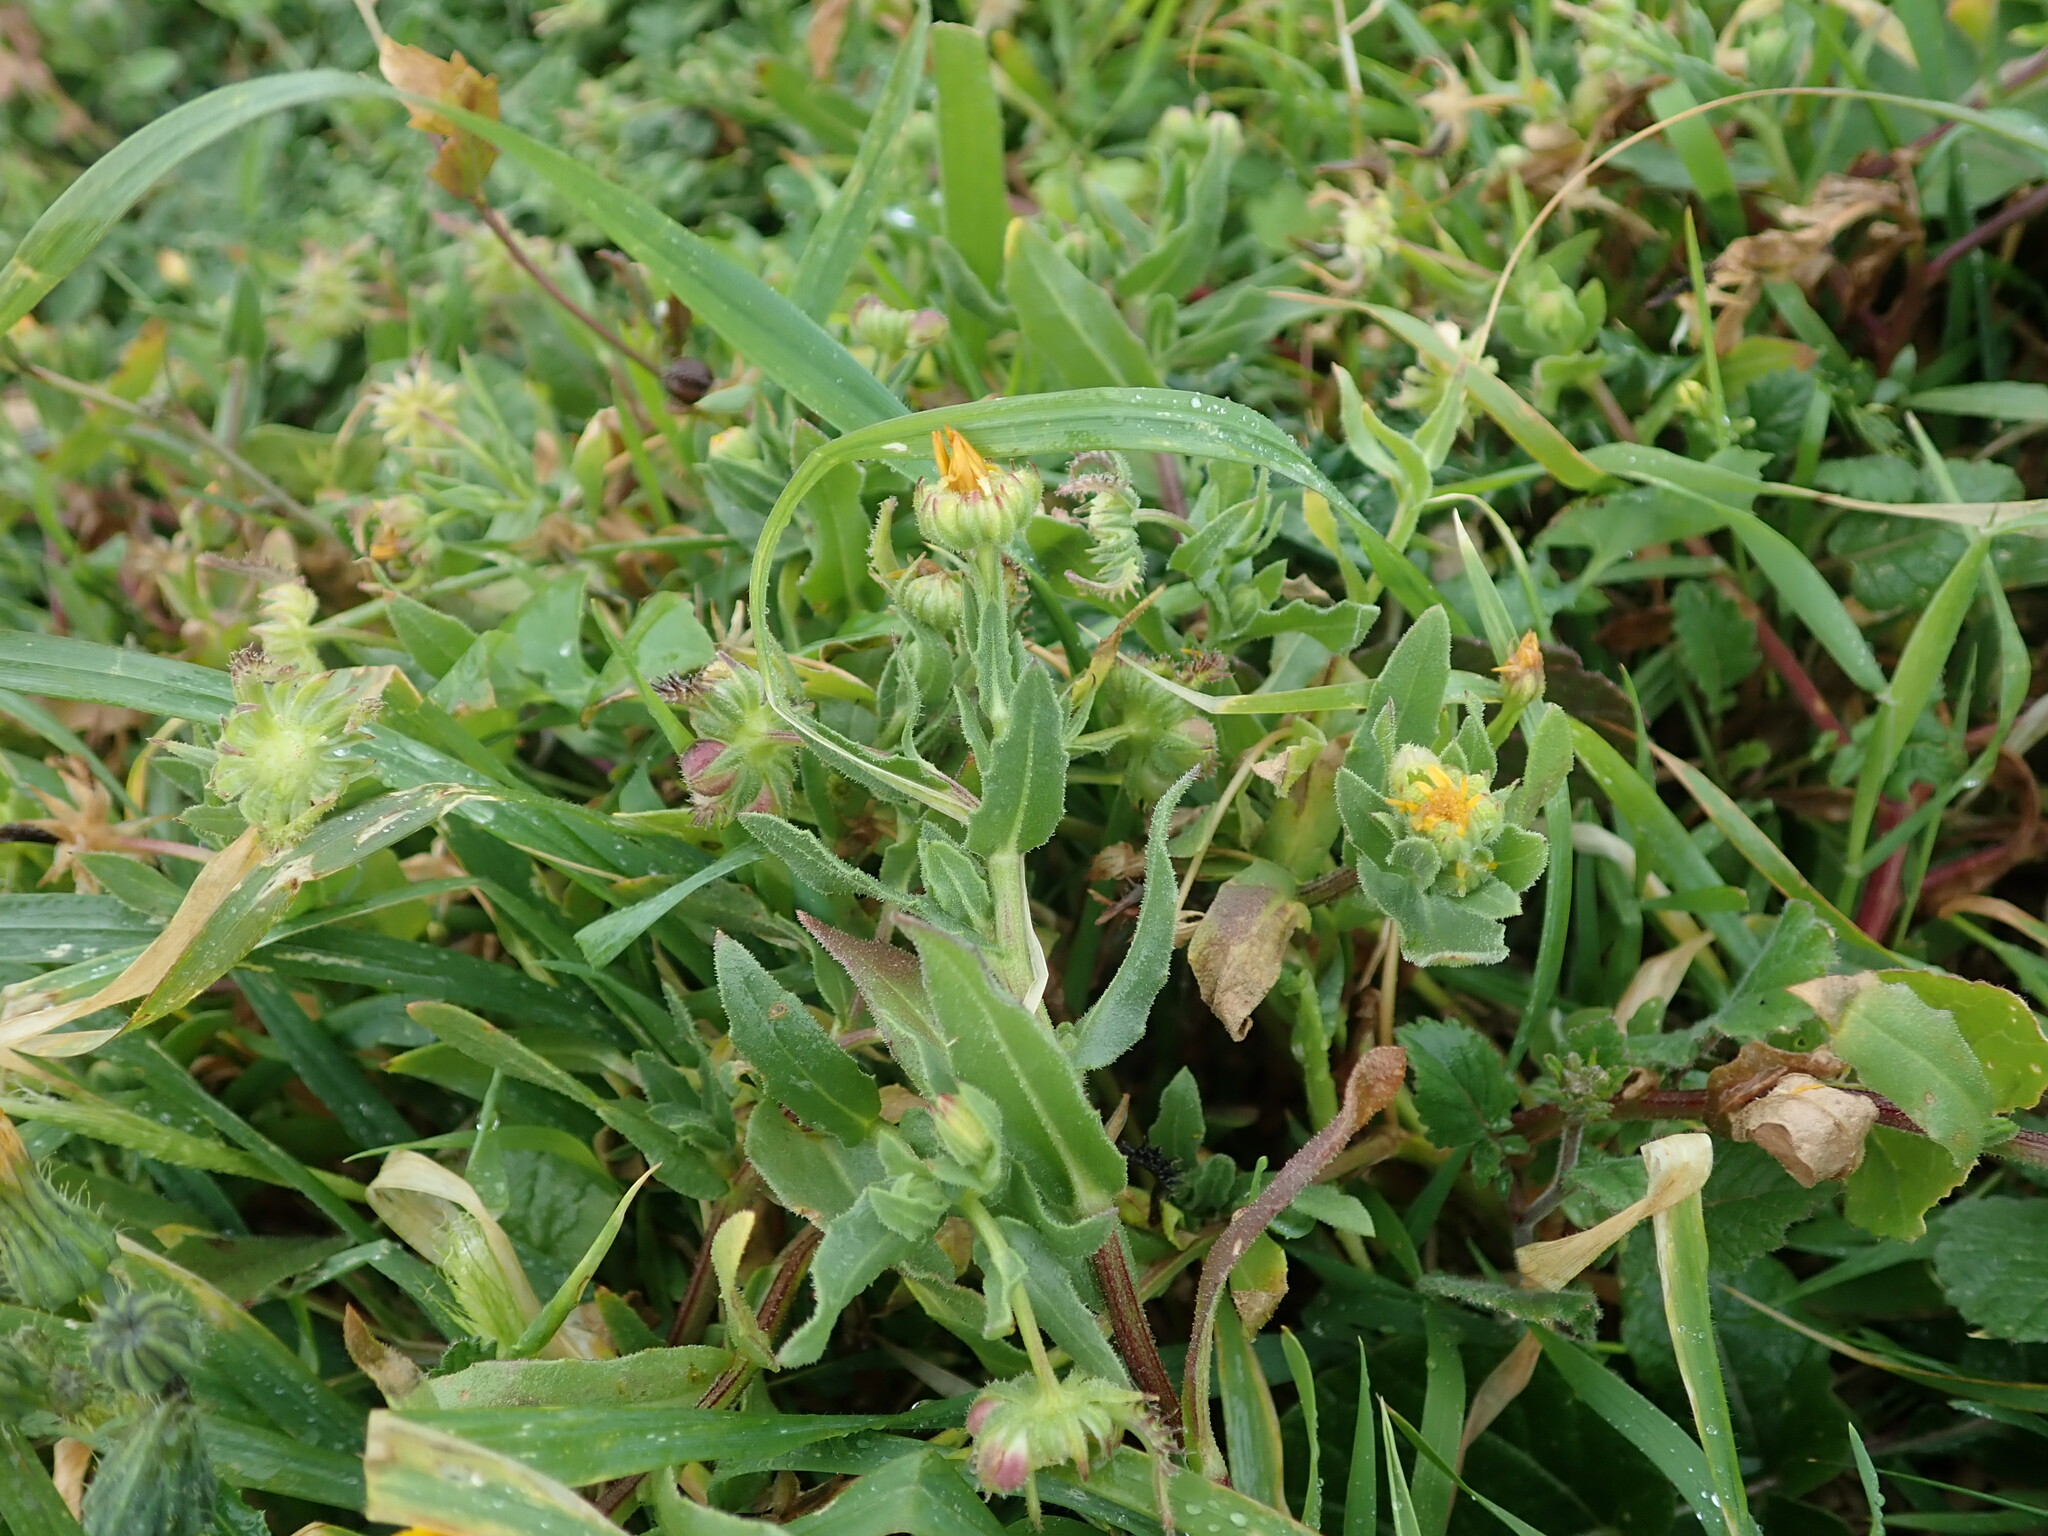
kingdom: Plantae
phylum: Tracheophyta
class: Magnoliopsida
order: Asterales
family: Asteraceae
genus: Calendula
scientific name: Calendula arvensis
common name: Field marigold
